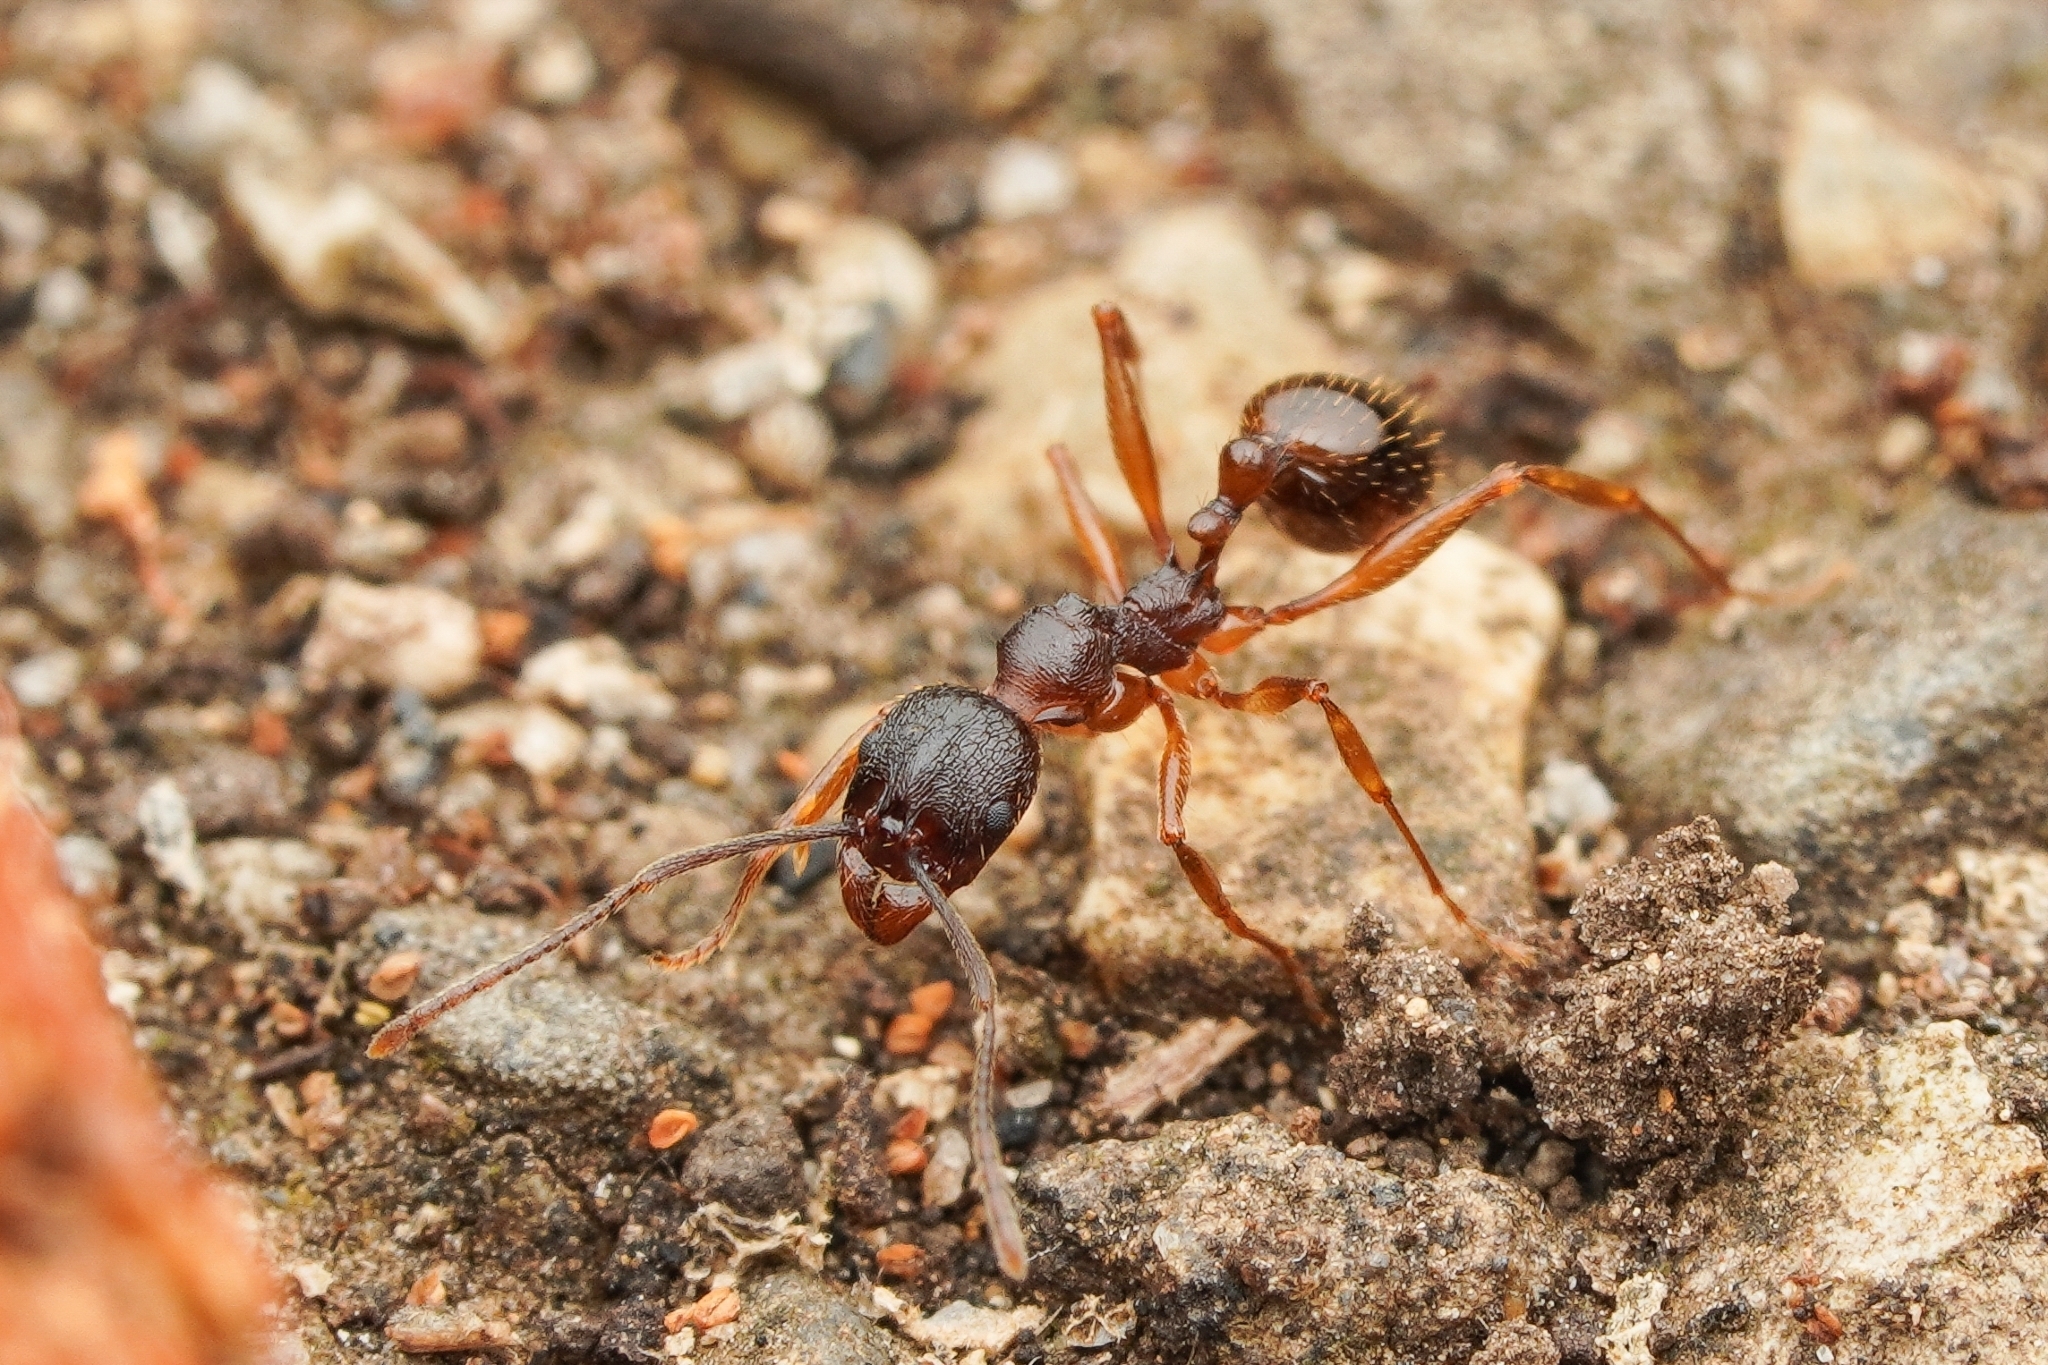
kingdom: Animalia
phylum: Arthropoda
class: Insecta
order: Hymenoptera
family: Formicidae
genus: Aphaenogaster
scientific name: Aphaenogaster japonica
